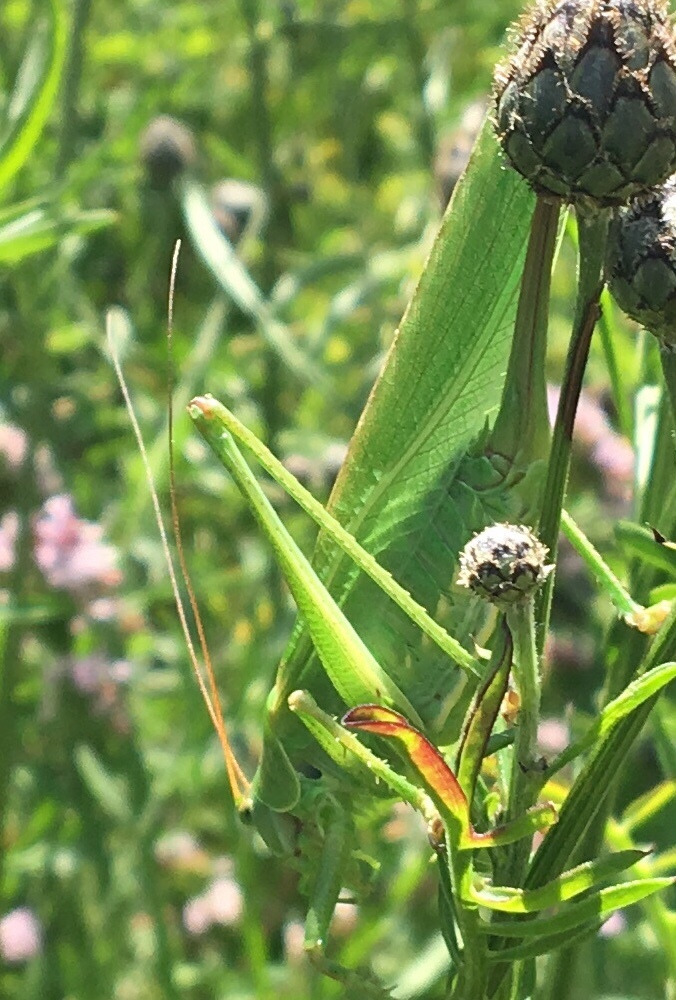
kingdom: Animalia
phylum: Arthropoda
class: Insecta
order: Orthoptera
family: Tettigoniidae
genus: Tettigonia
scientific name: Tettigonia viridissima
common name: Great green bush-cricket
